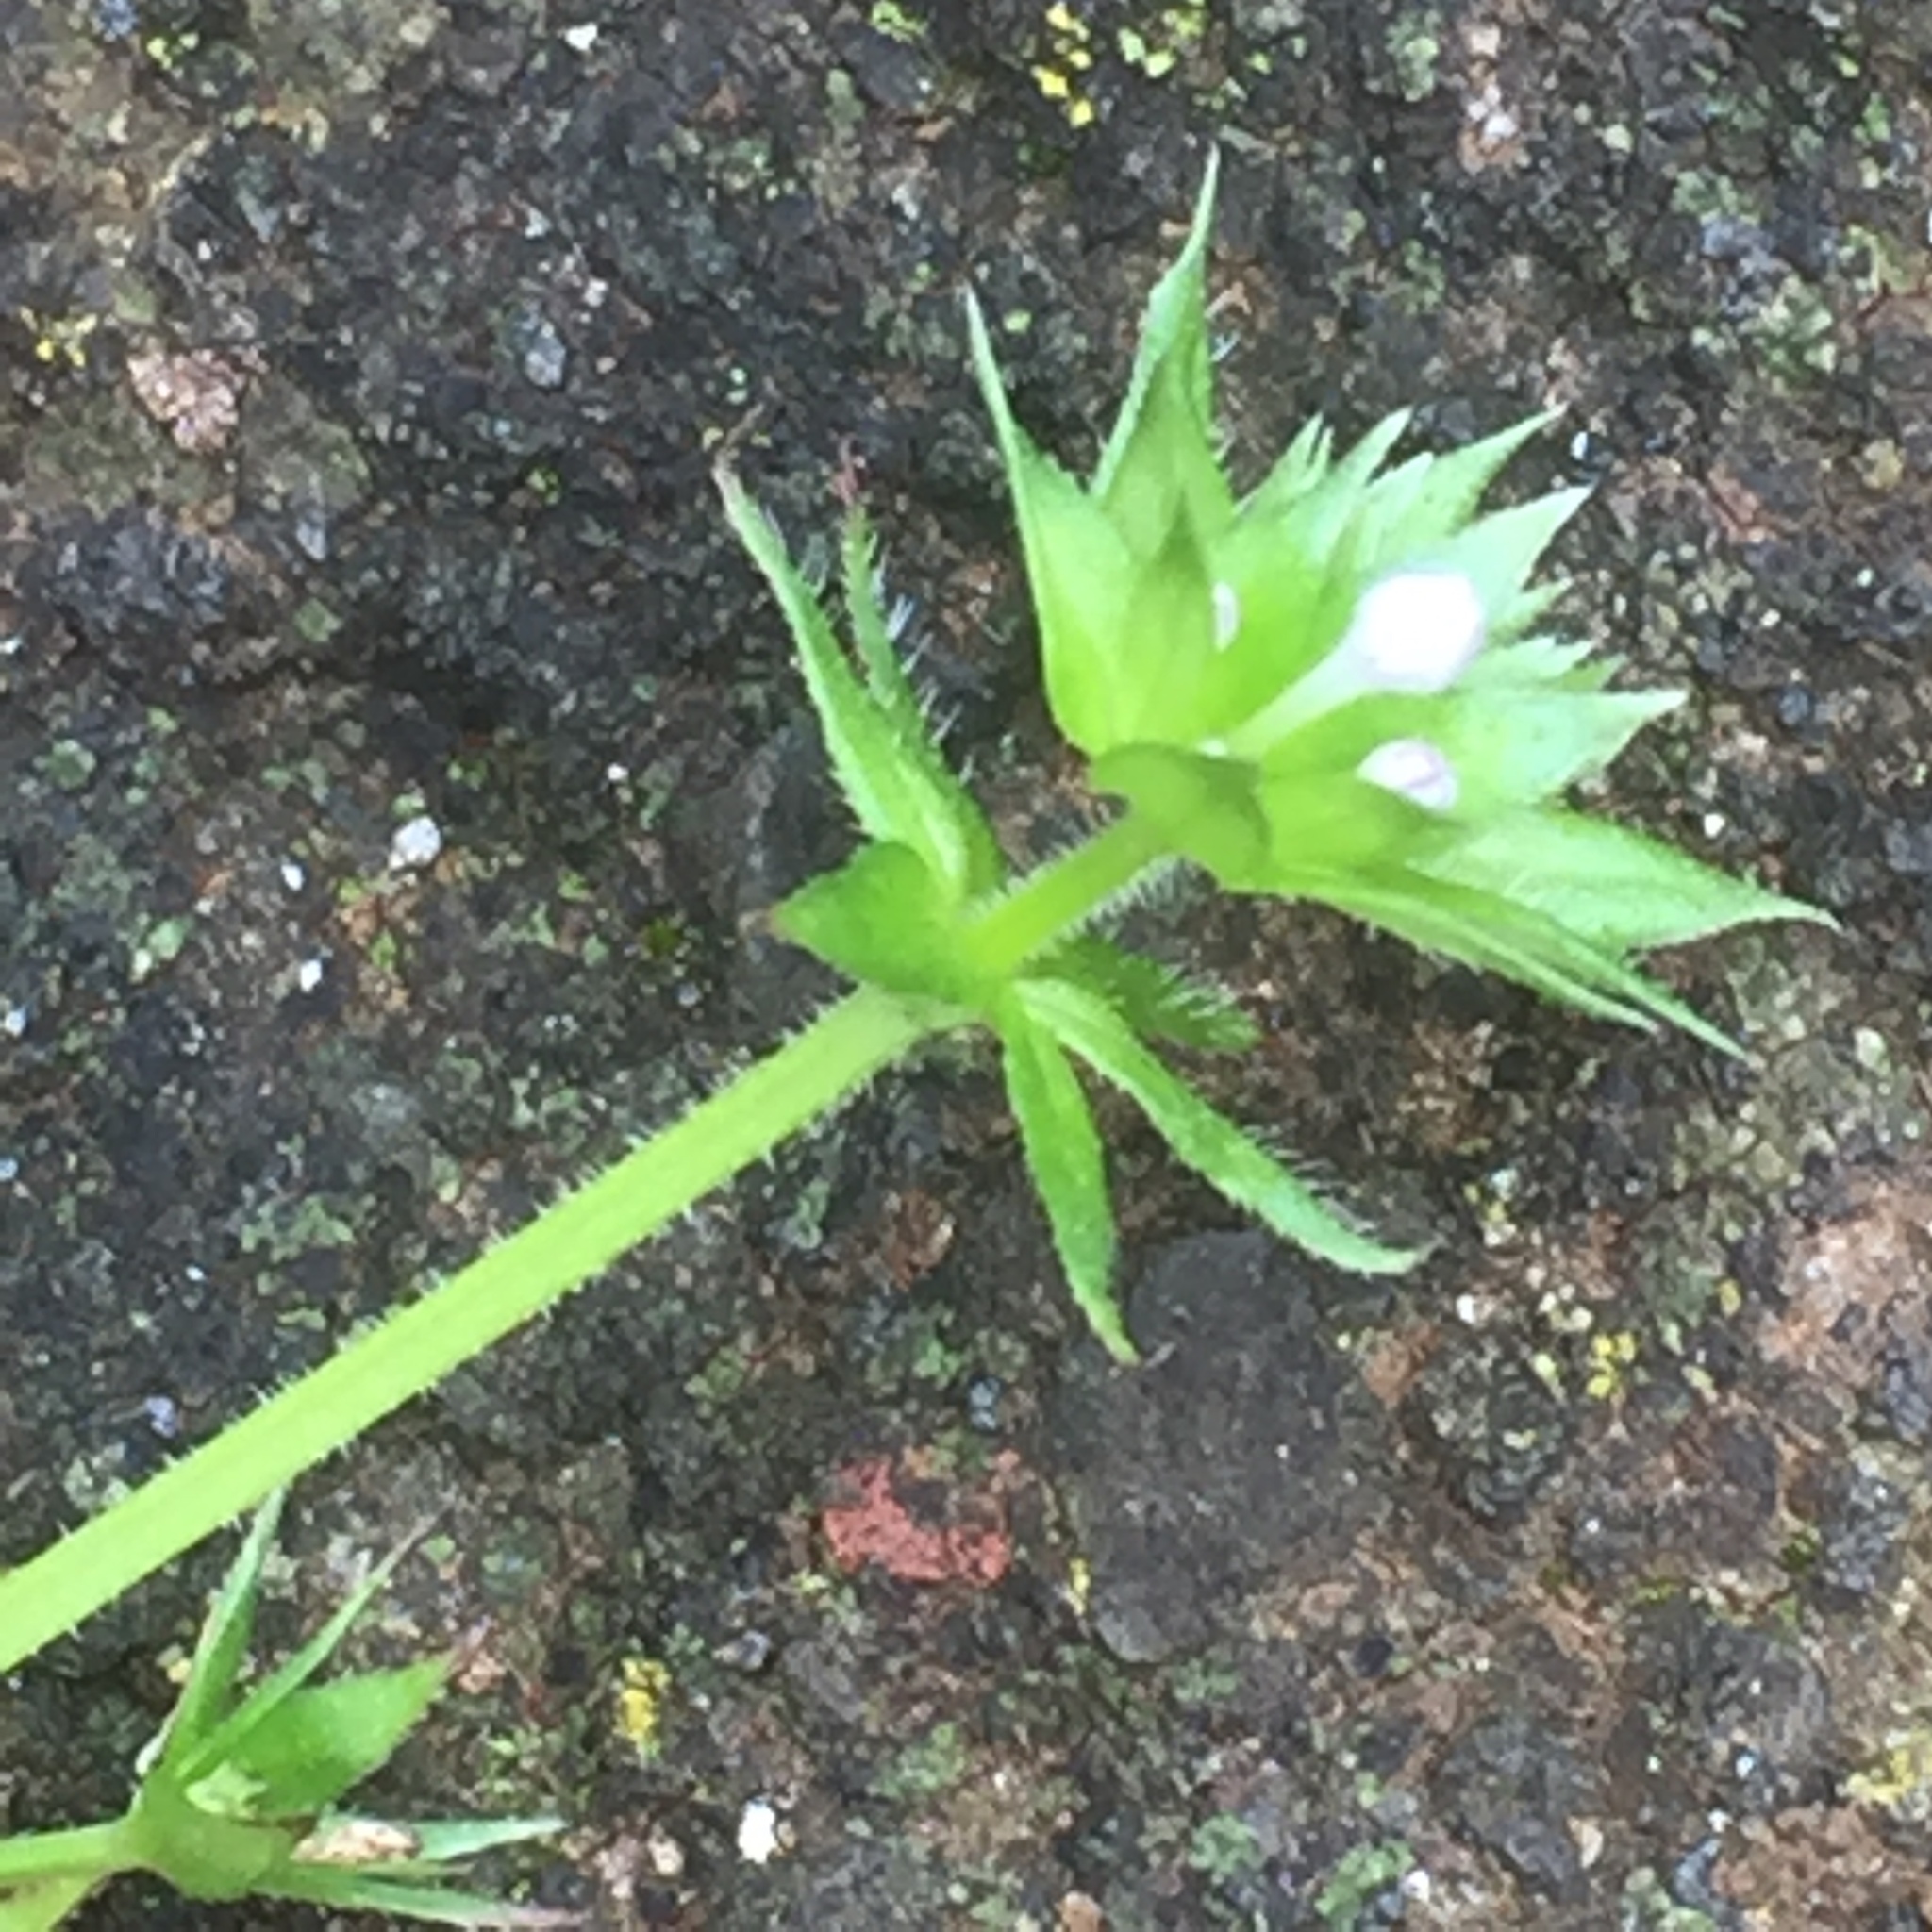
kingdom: Plantae
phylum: Tracheophyta
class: Magnoliopsida
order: Gentianales
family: Rubiaceae
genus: Sherardia
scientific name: Sherardia arvensis
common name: Field madder
